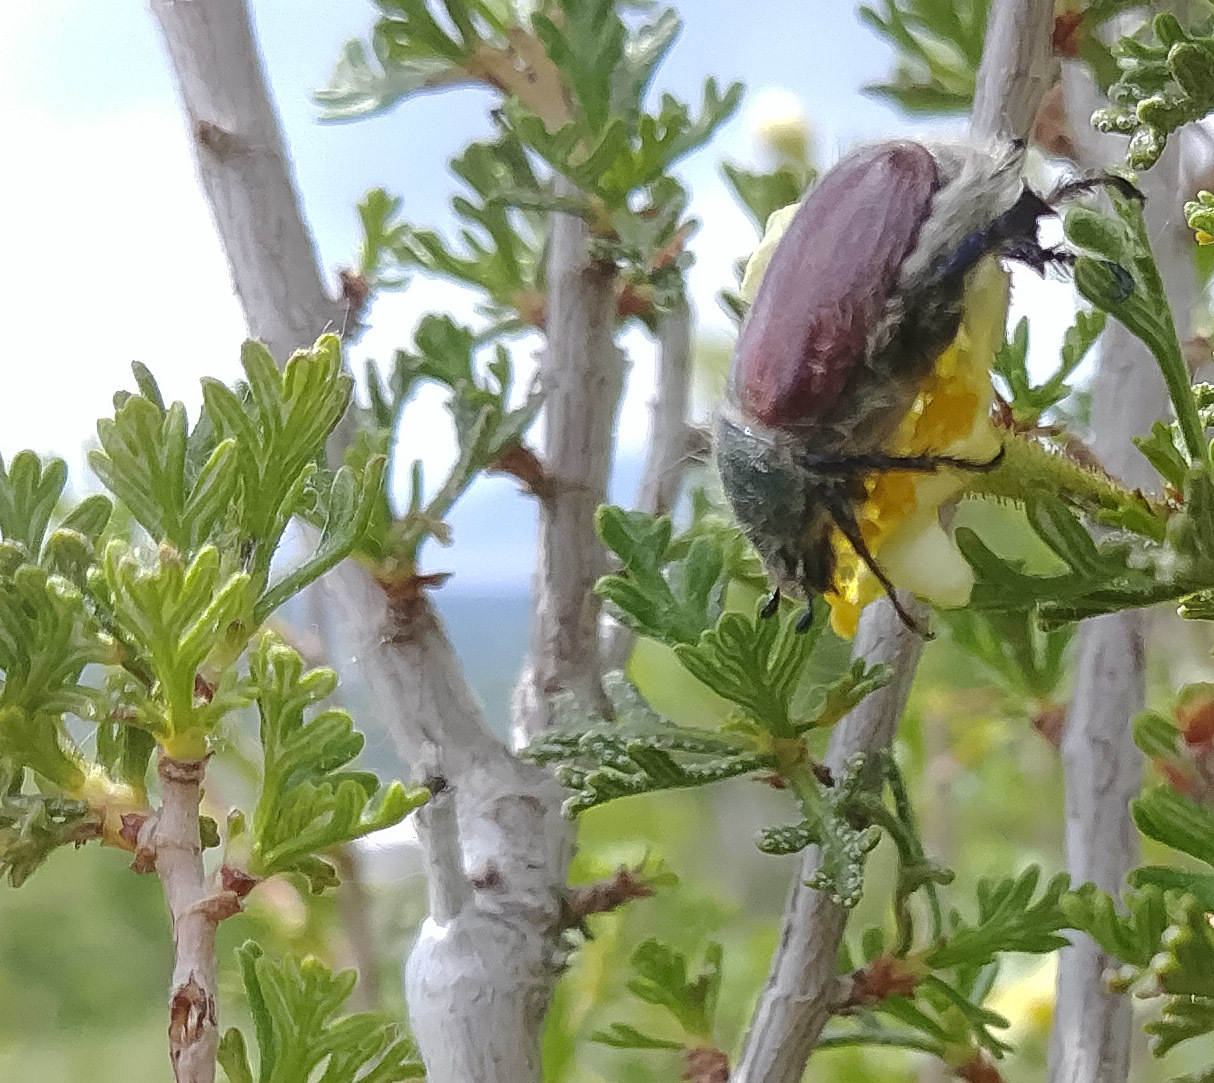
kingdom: Animalia
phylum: Arthropoda
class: Insecta
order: Coleoptera
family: Scarabaeidae
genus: Paracotalpa
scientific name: Paracotalpa granicollis
